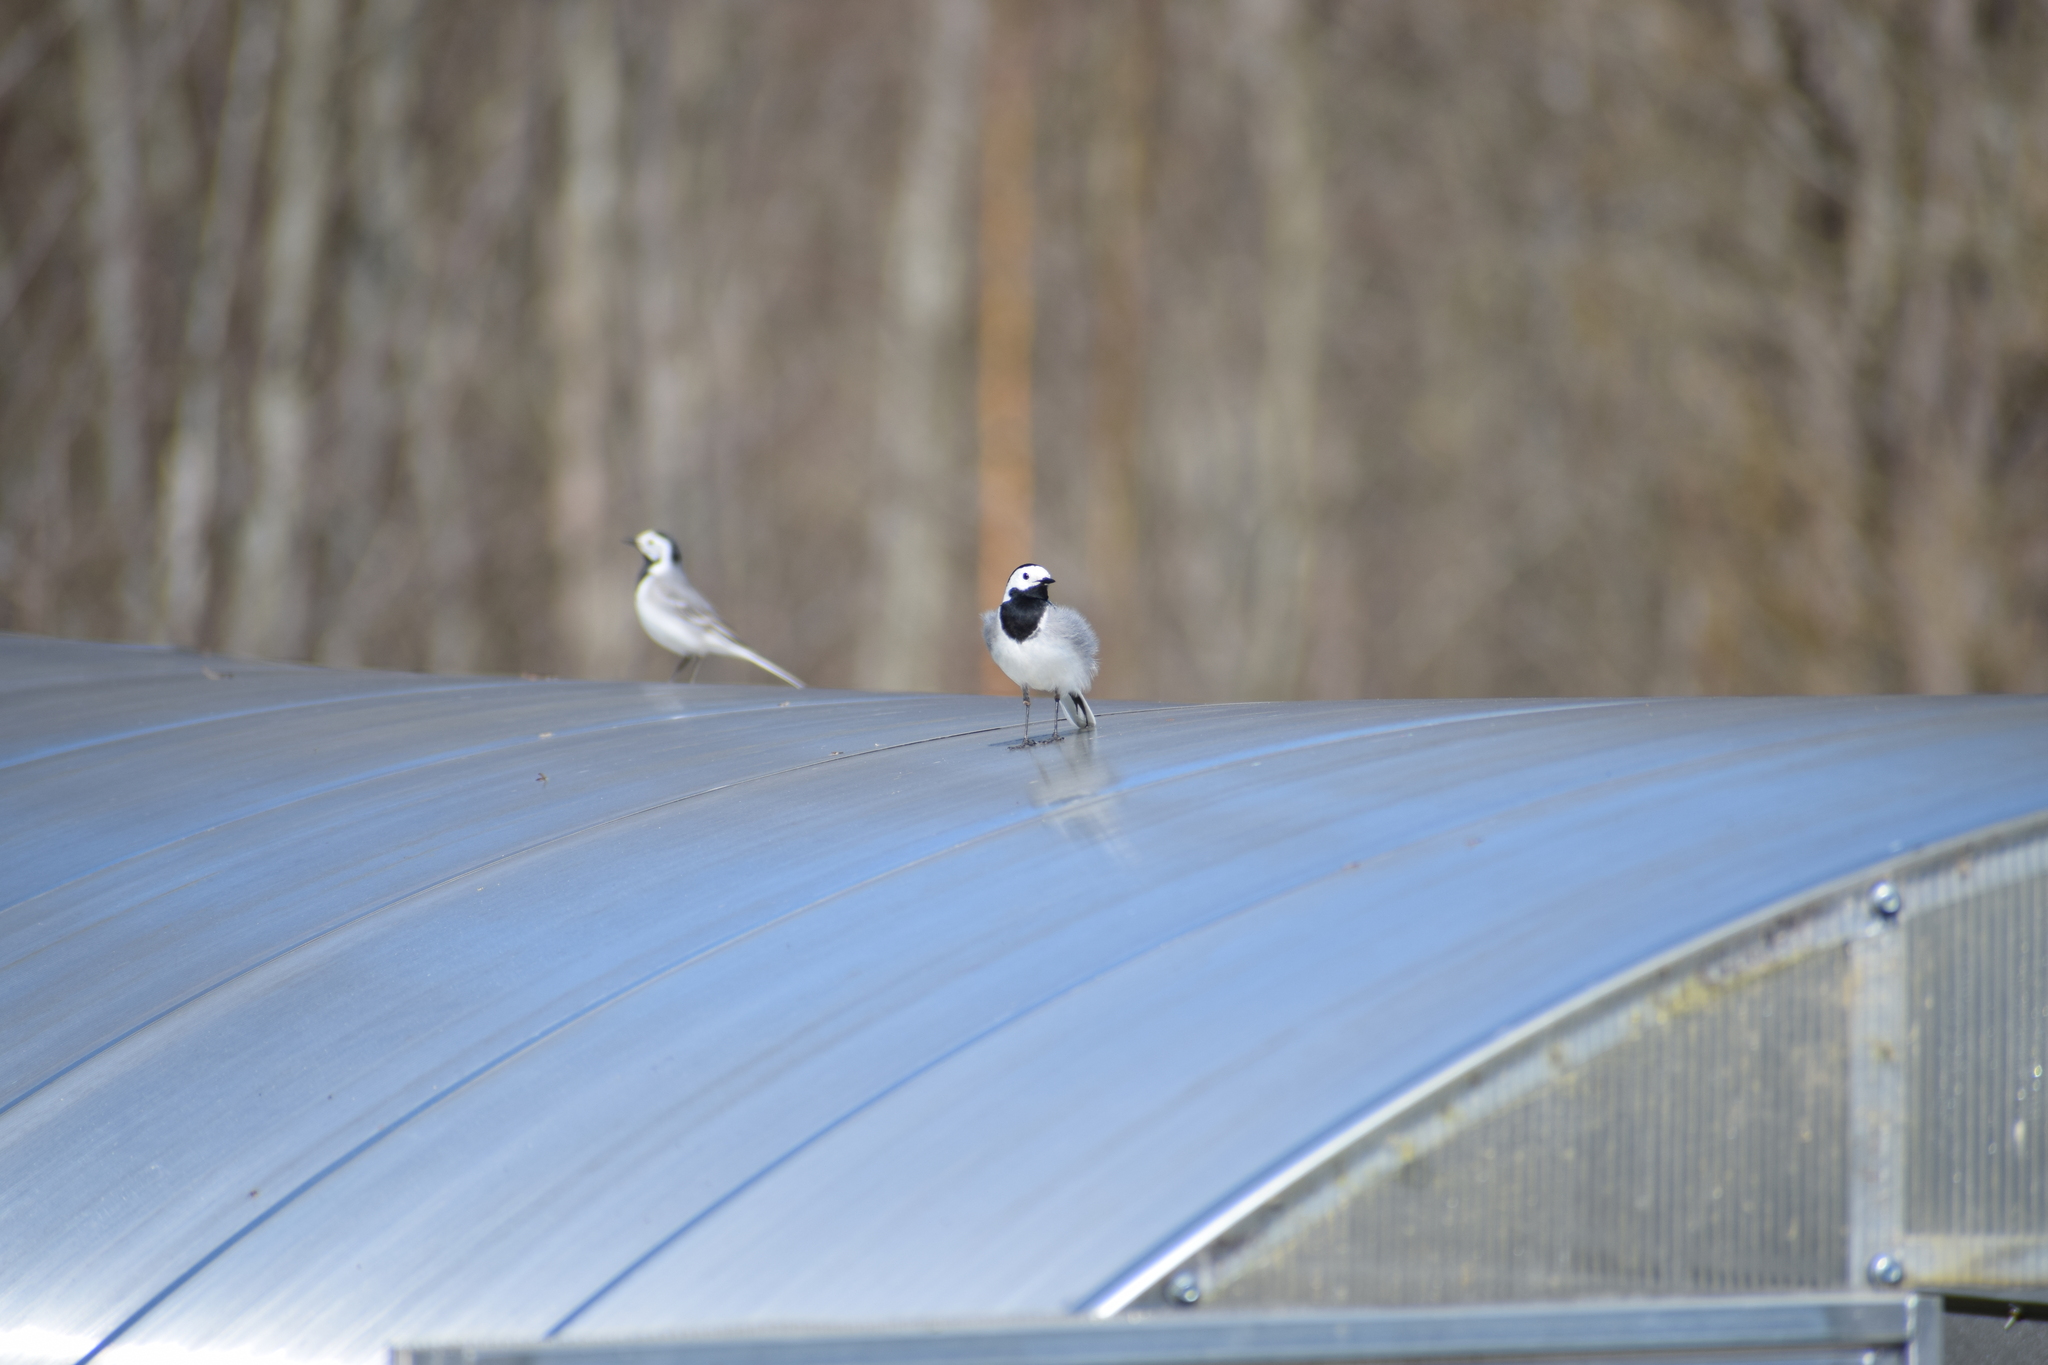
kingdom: Animalia
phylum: Chordata
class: Aves
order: Passeriformes
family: Motacillidae
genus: Motacilla
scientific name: Motacilla alba
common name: White wagtail
